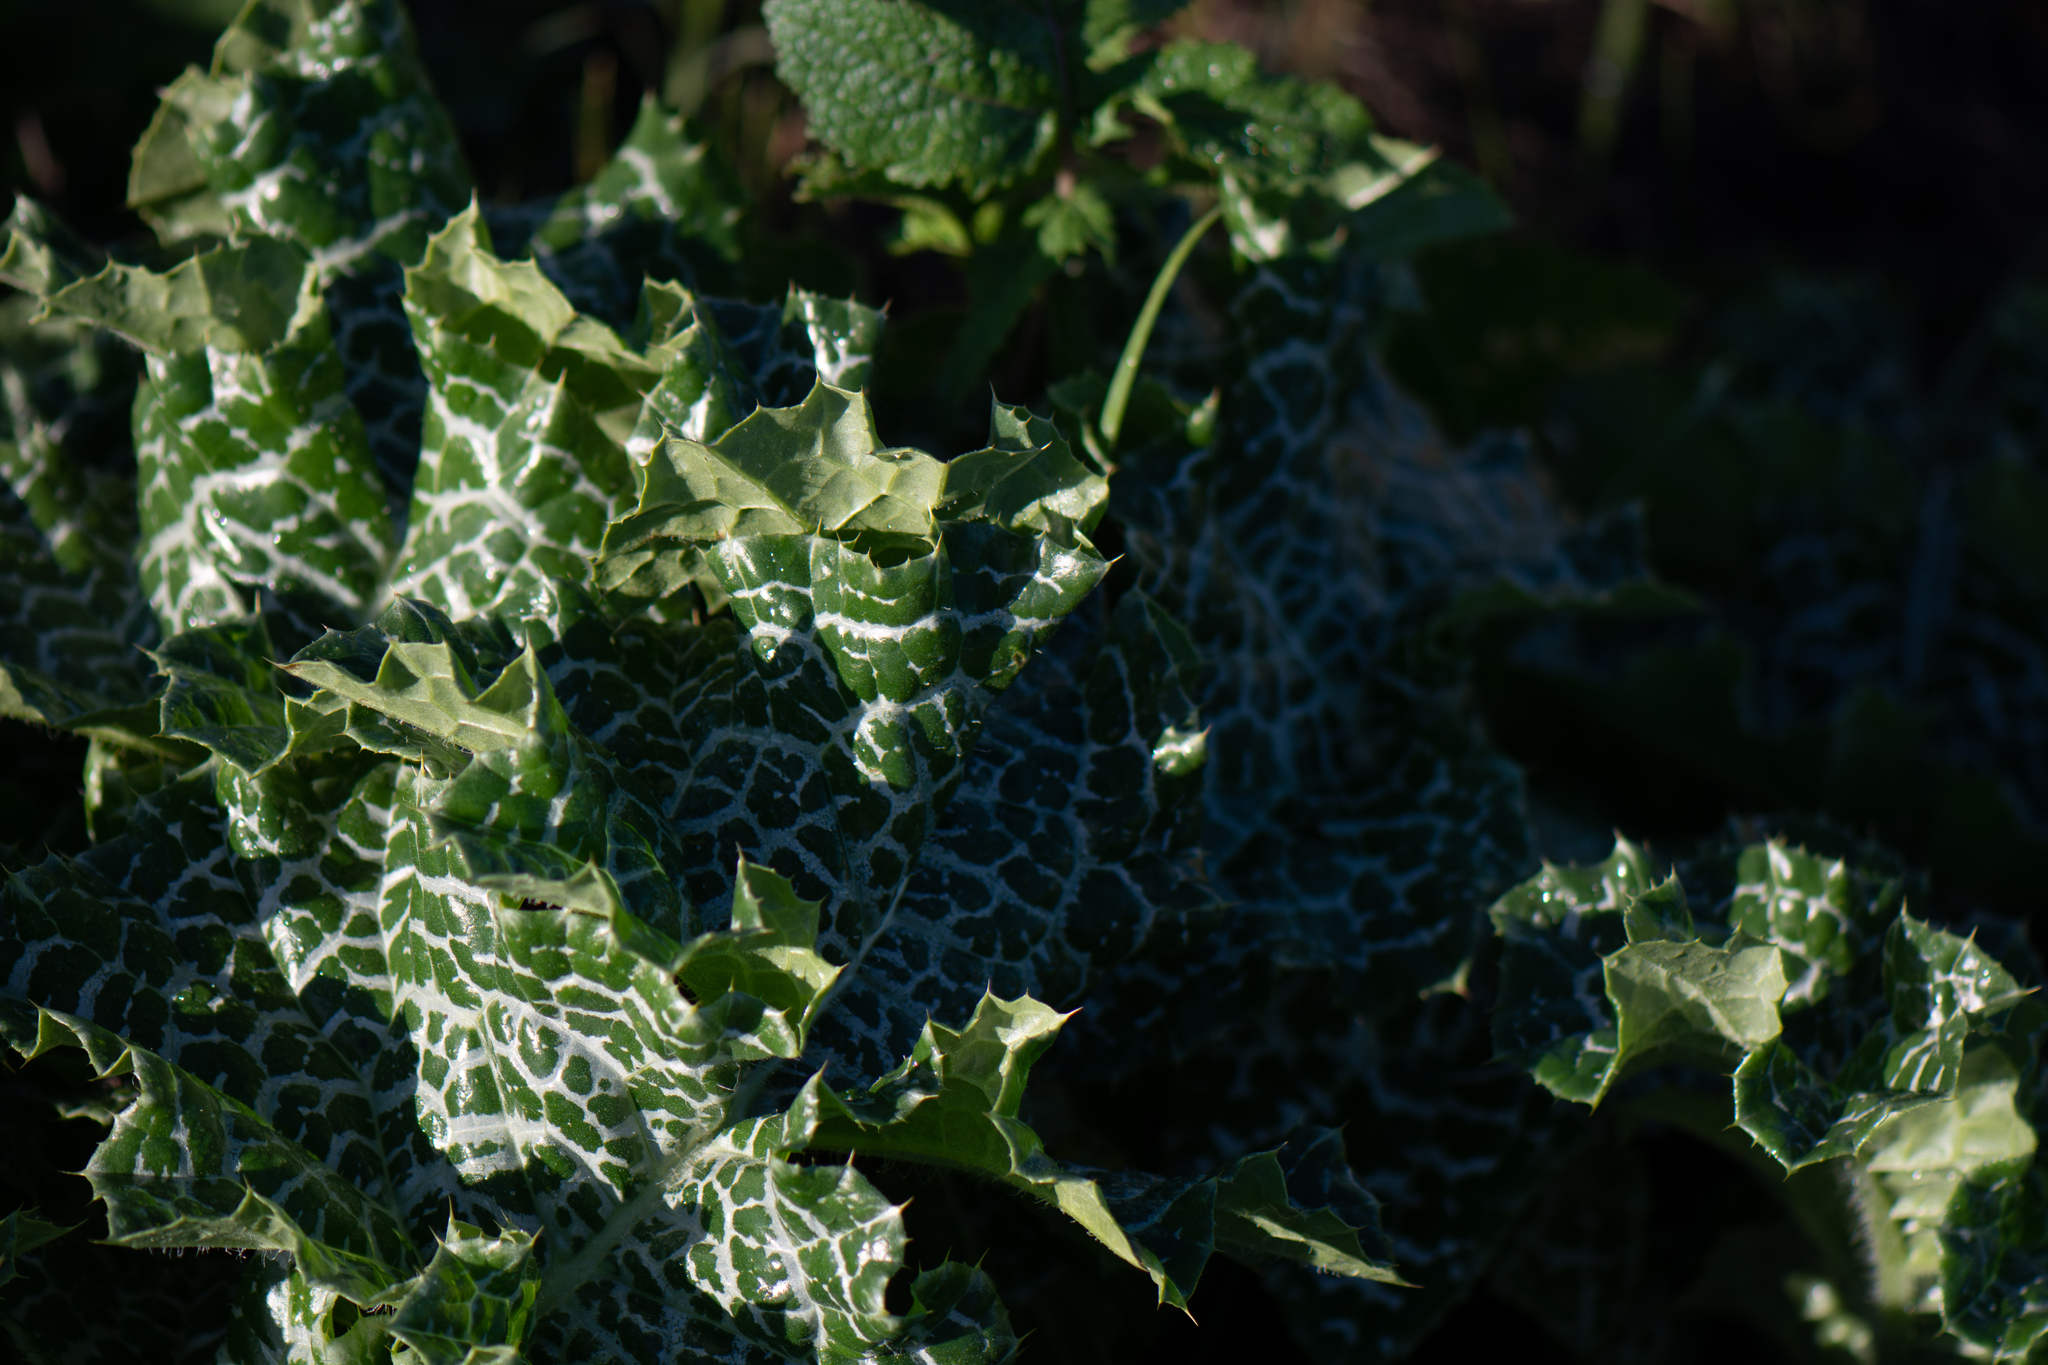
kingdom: Plantae
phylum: Tracheophyta
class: Magnoliopsida
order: Asterales
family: Asteraceae
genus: Silybum
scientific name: Silybum marianum
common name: Milk thistle
